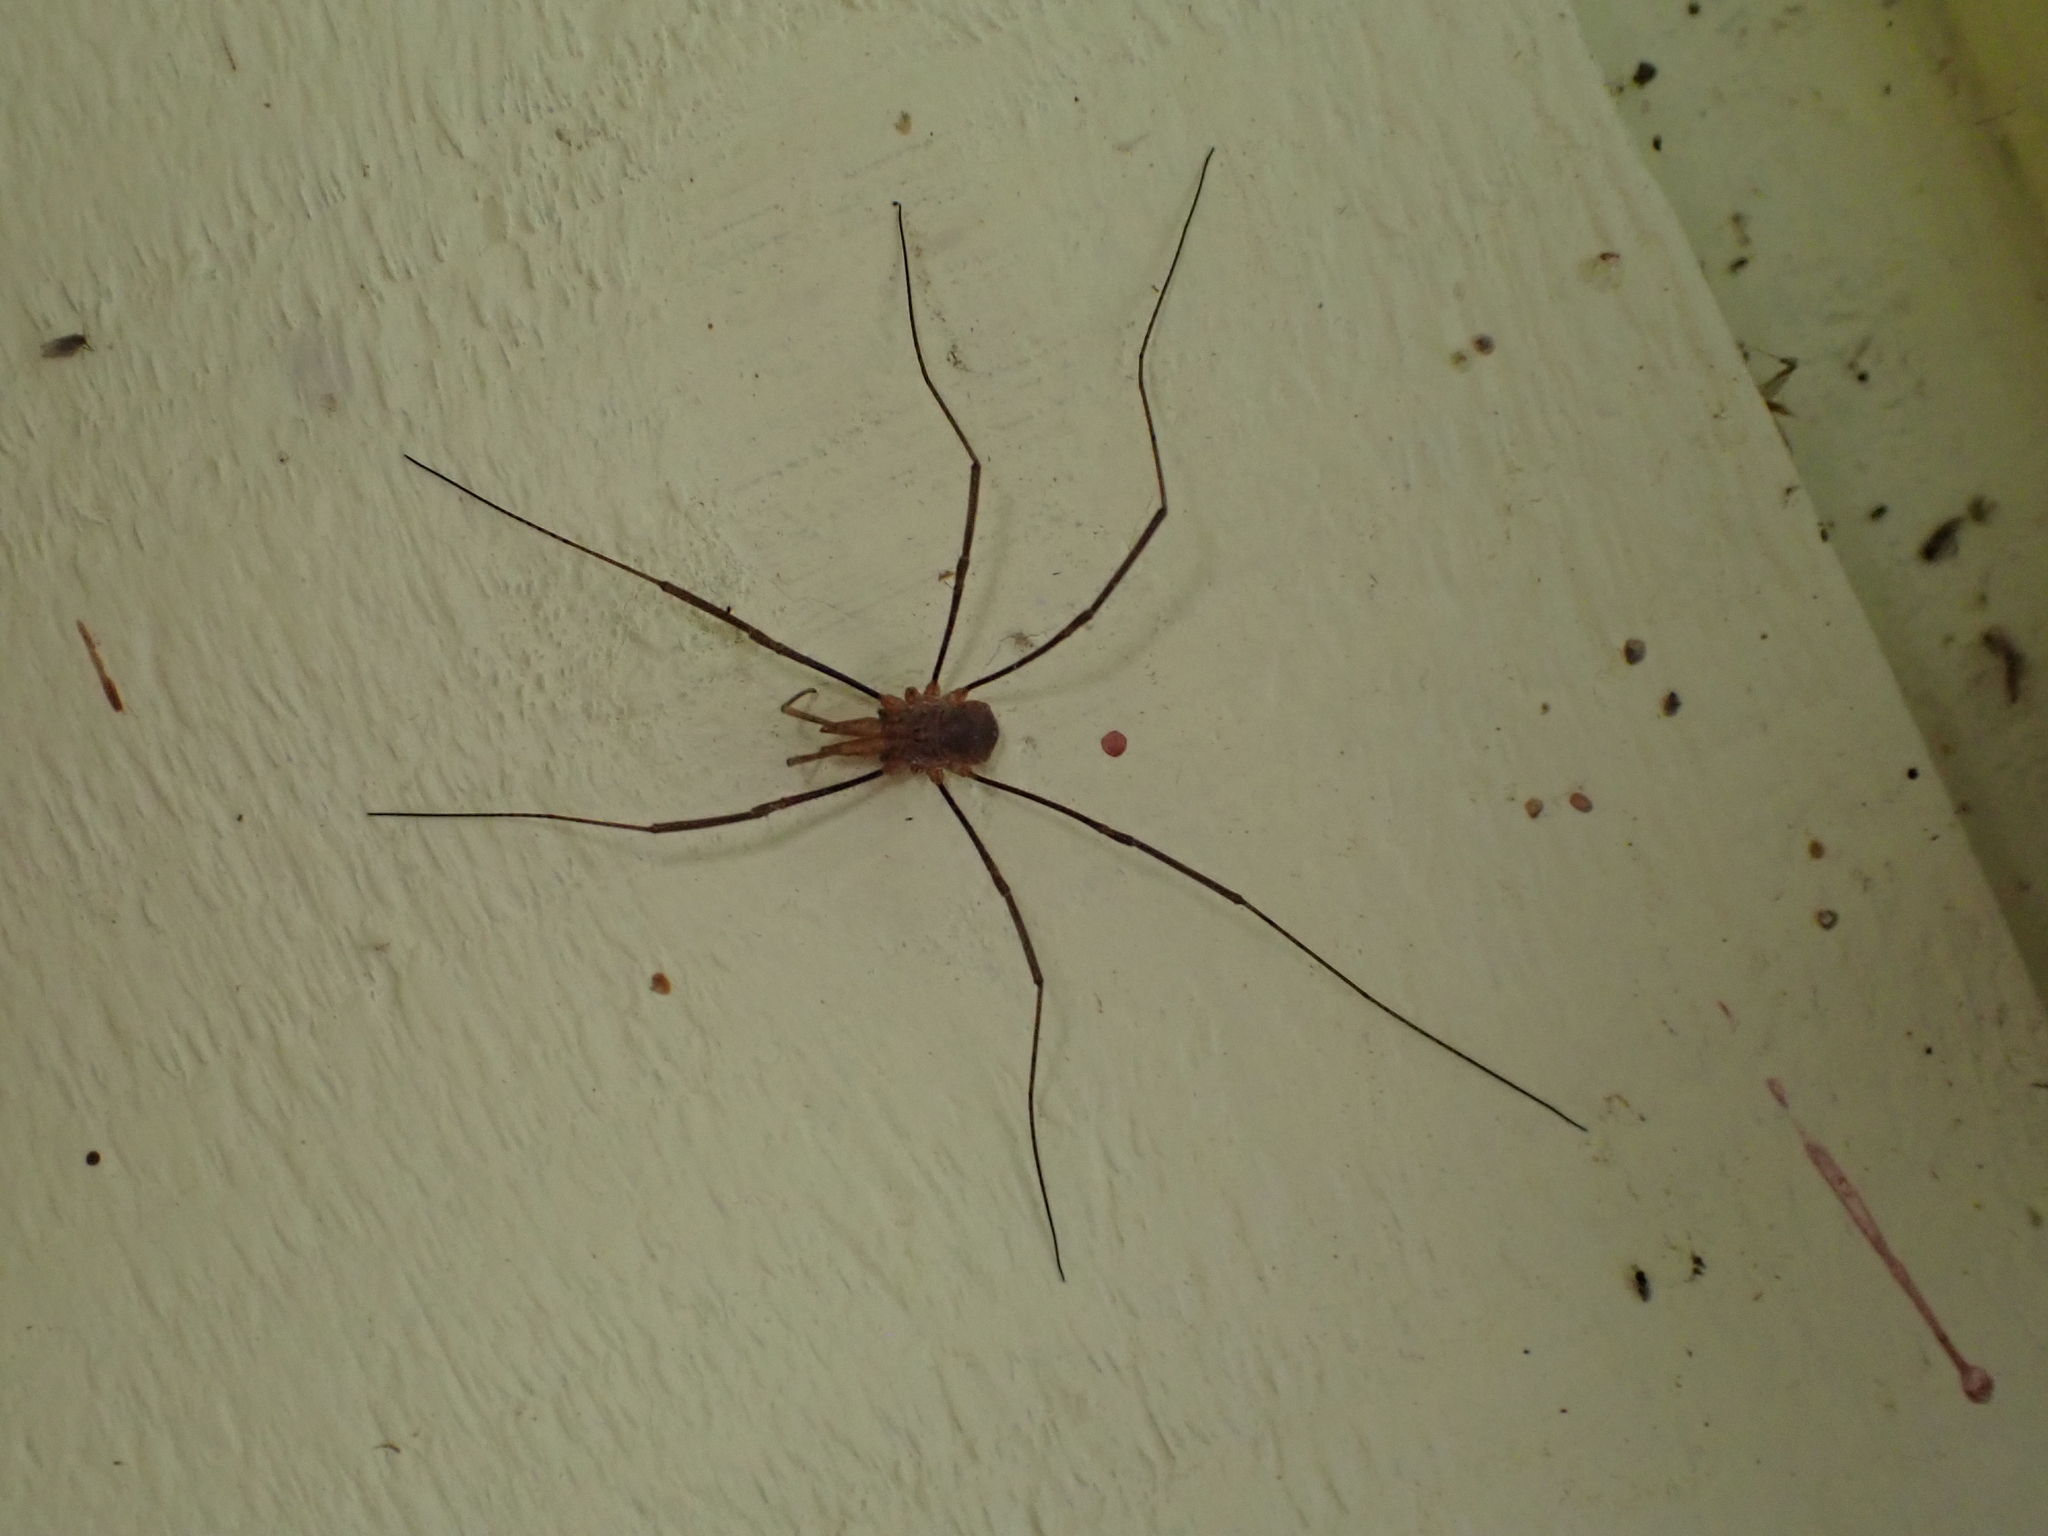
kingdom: Animalia
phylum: Arthropoda
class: Arachnida
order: Opiliones
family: Phalangiidae
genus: Phalangium
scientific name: Phalangium opilio
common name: Daddy longleg
